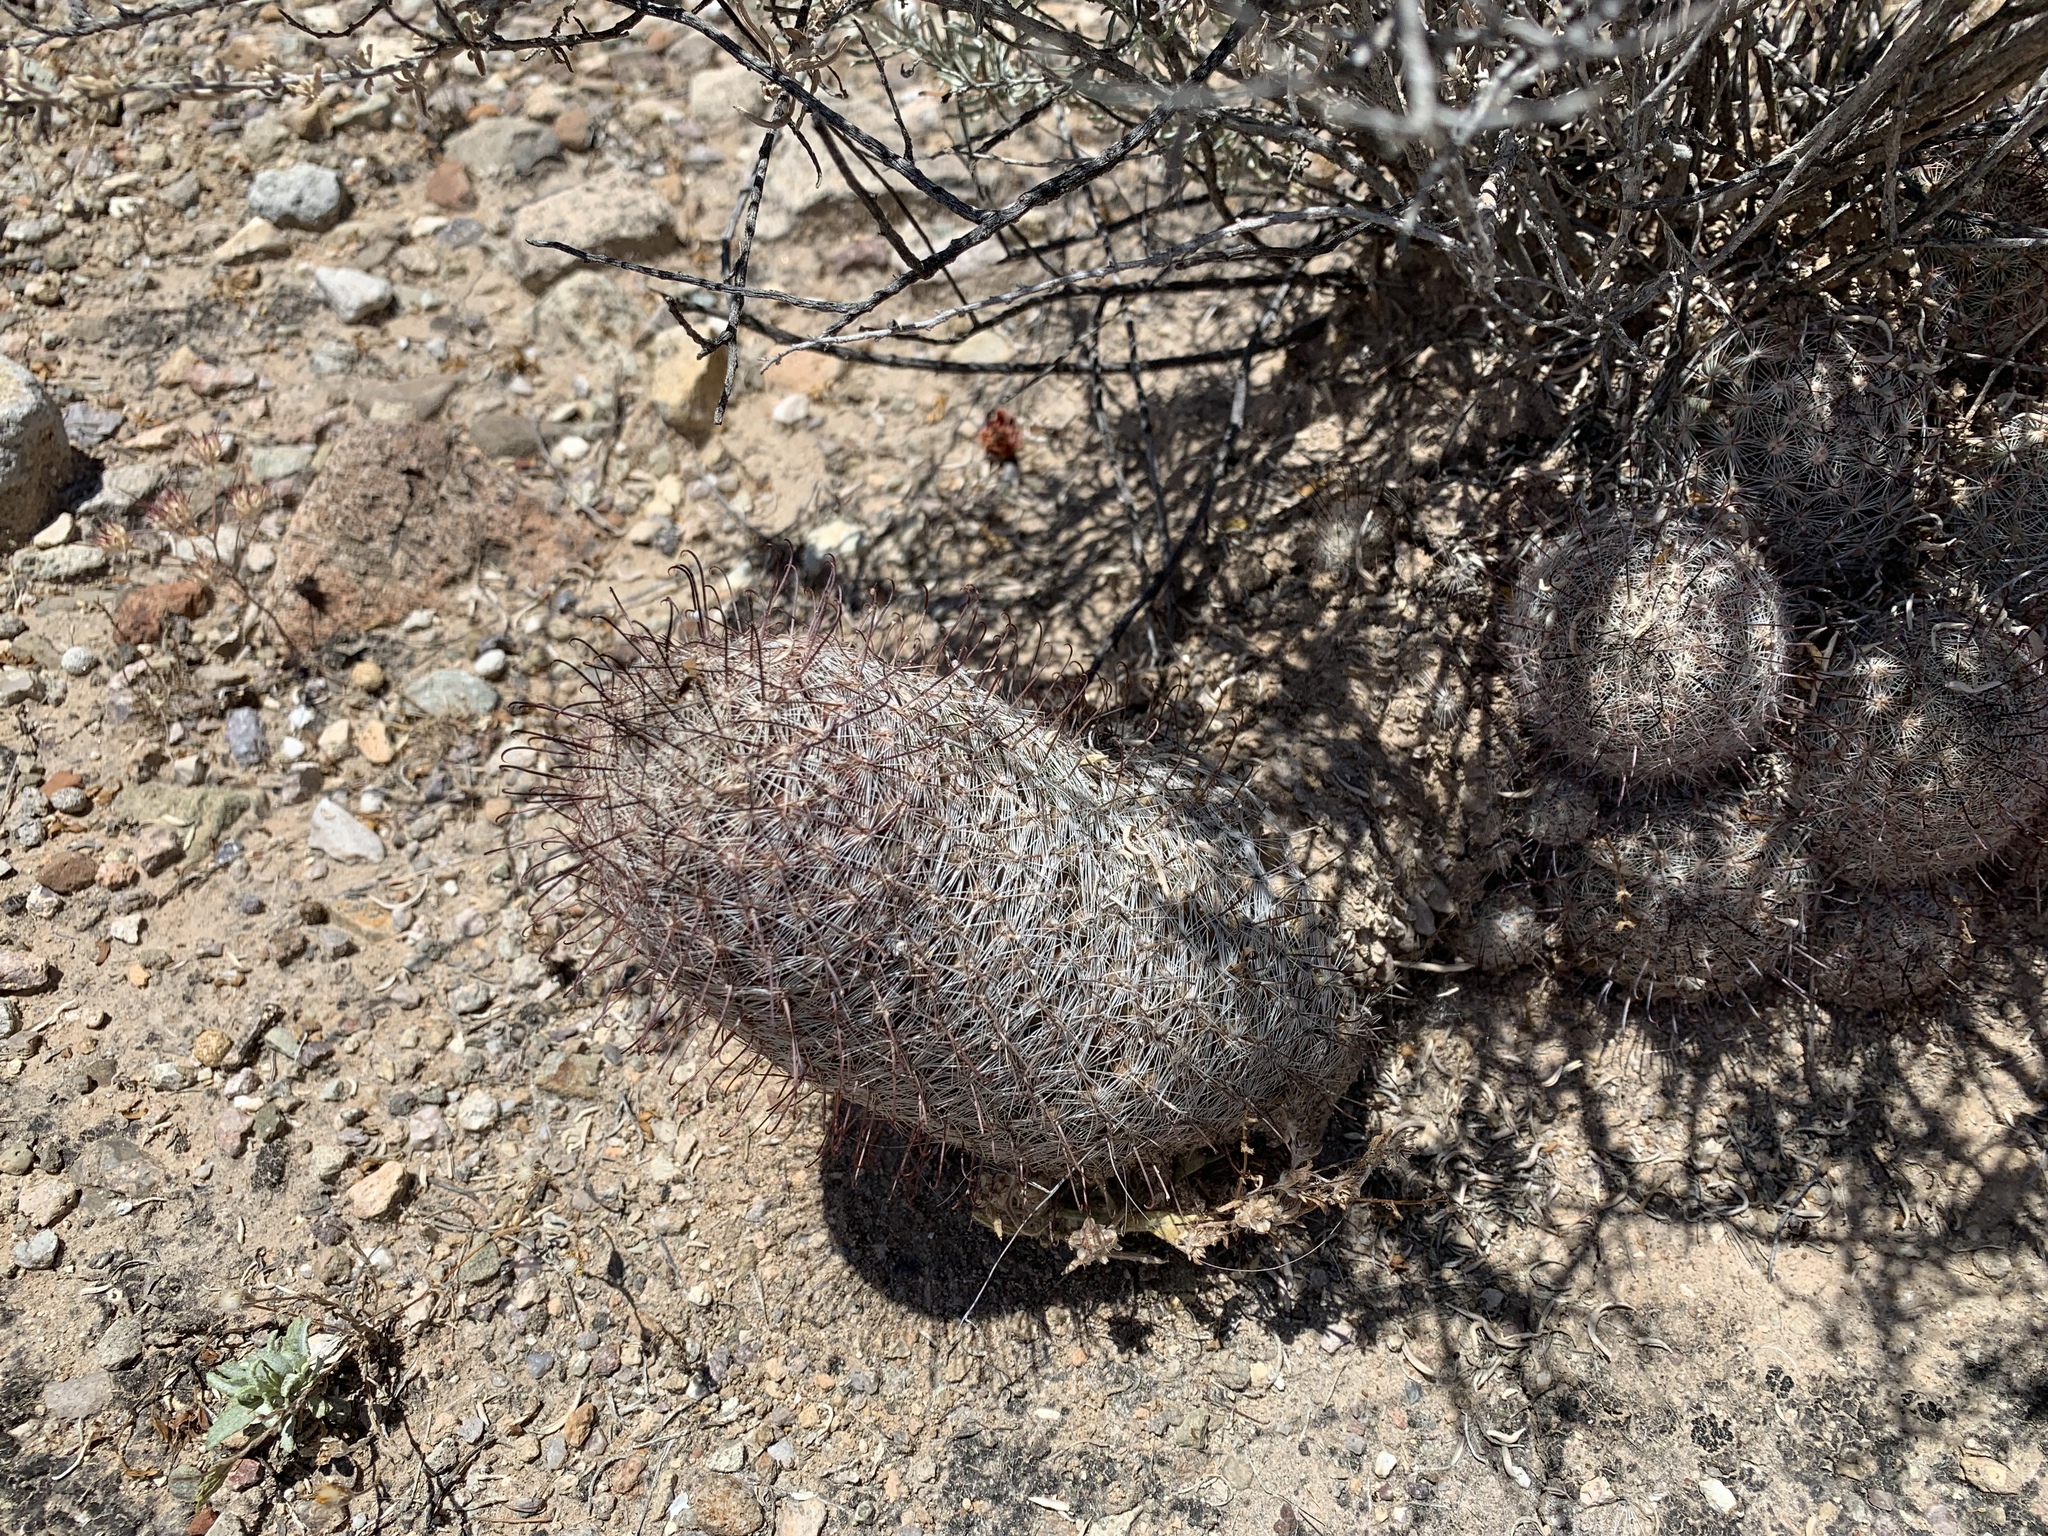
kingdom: Plantae
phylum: Tracheophyta
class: Magnoliopsida
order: Caryophyllales
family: Cactaceae
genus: Cochemiea
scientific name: Cochemiea grahamii
